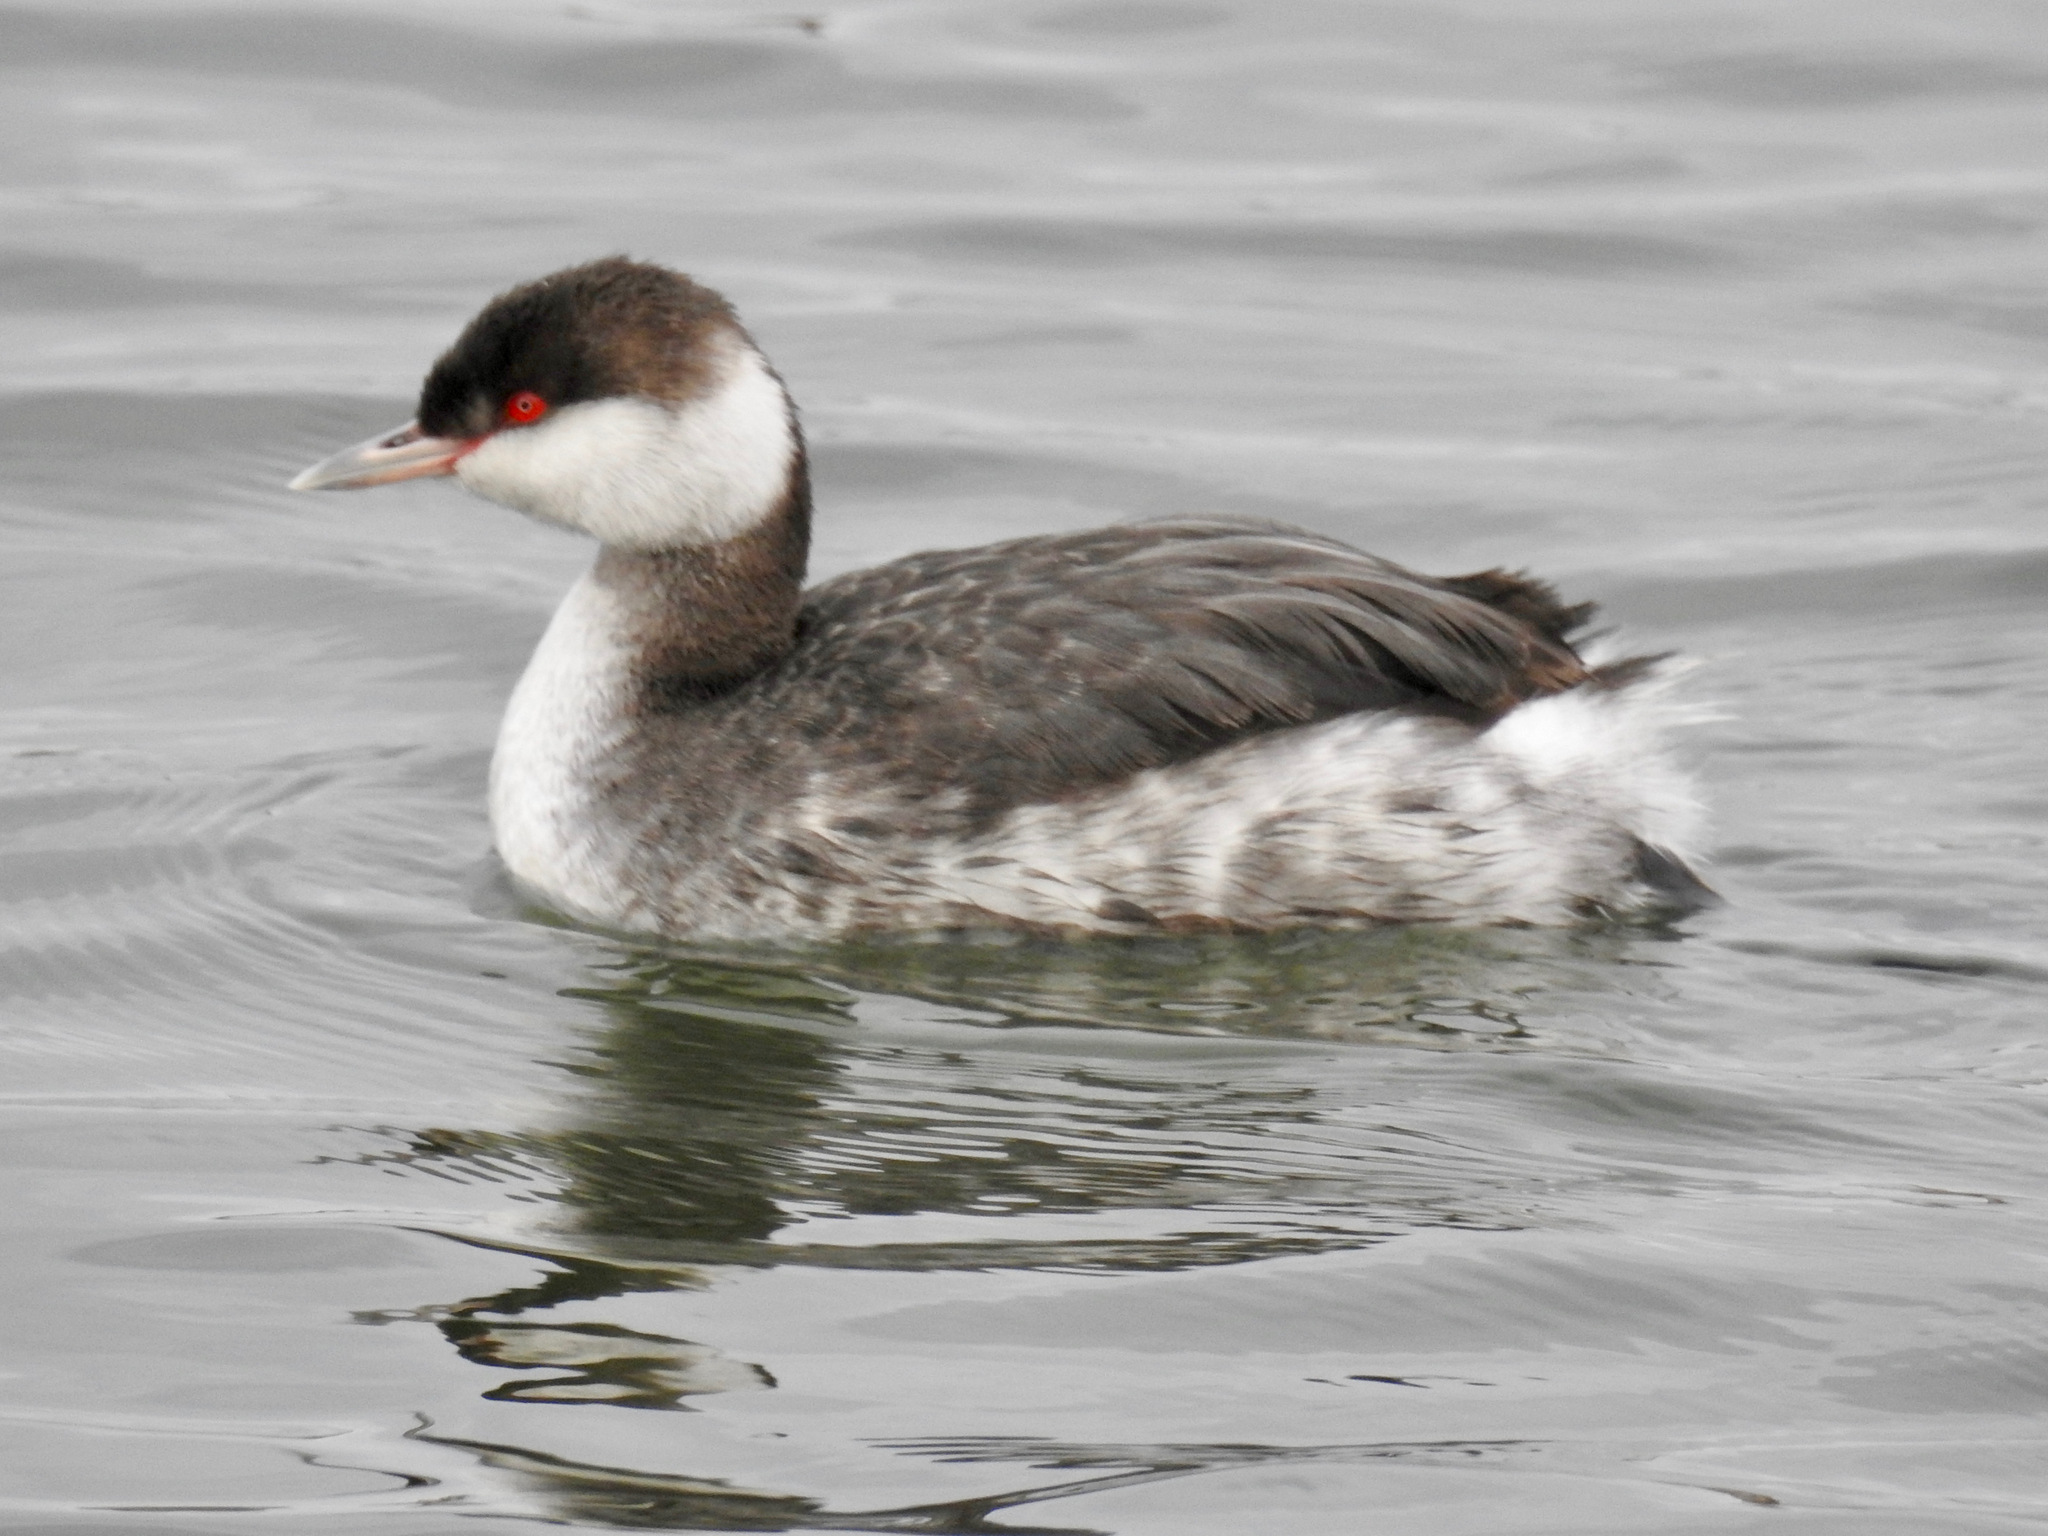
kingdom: Animalia
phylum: Chordata
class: Aves
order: Podicipediformes
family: Podicipedidae
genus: Podiceps
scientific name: Podiceps auritus
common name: Horned grebe
